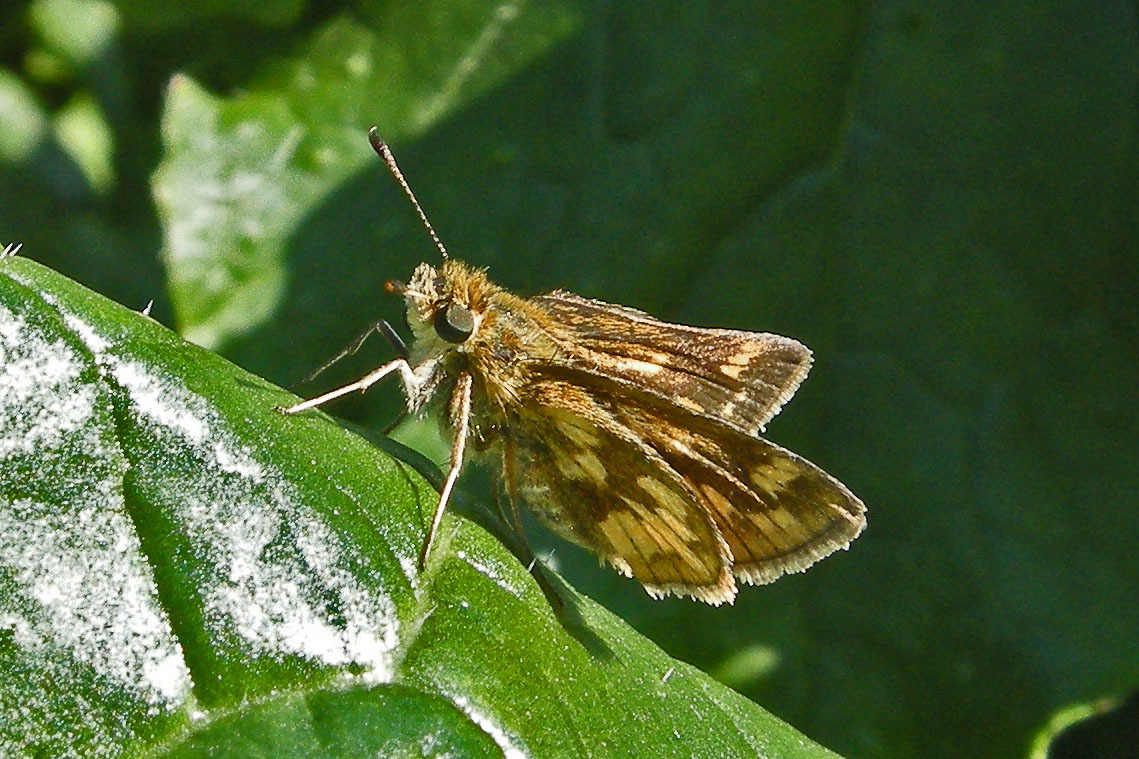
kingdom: Animalia
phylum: Arthropoda
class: Insecta
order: Lepidoptera
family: Hesperiidae
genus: Polites
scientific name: Polites coras
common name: Peck's skipper
